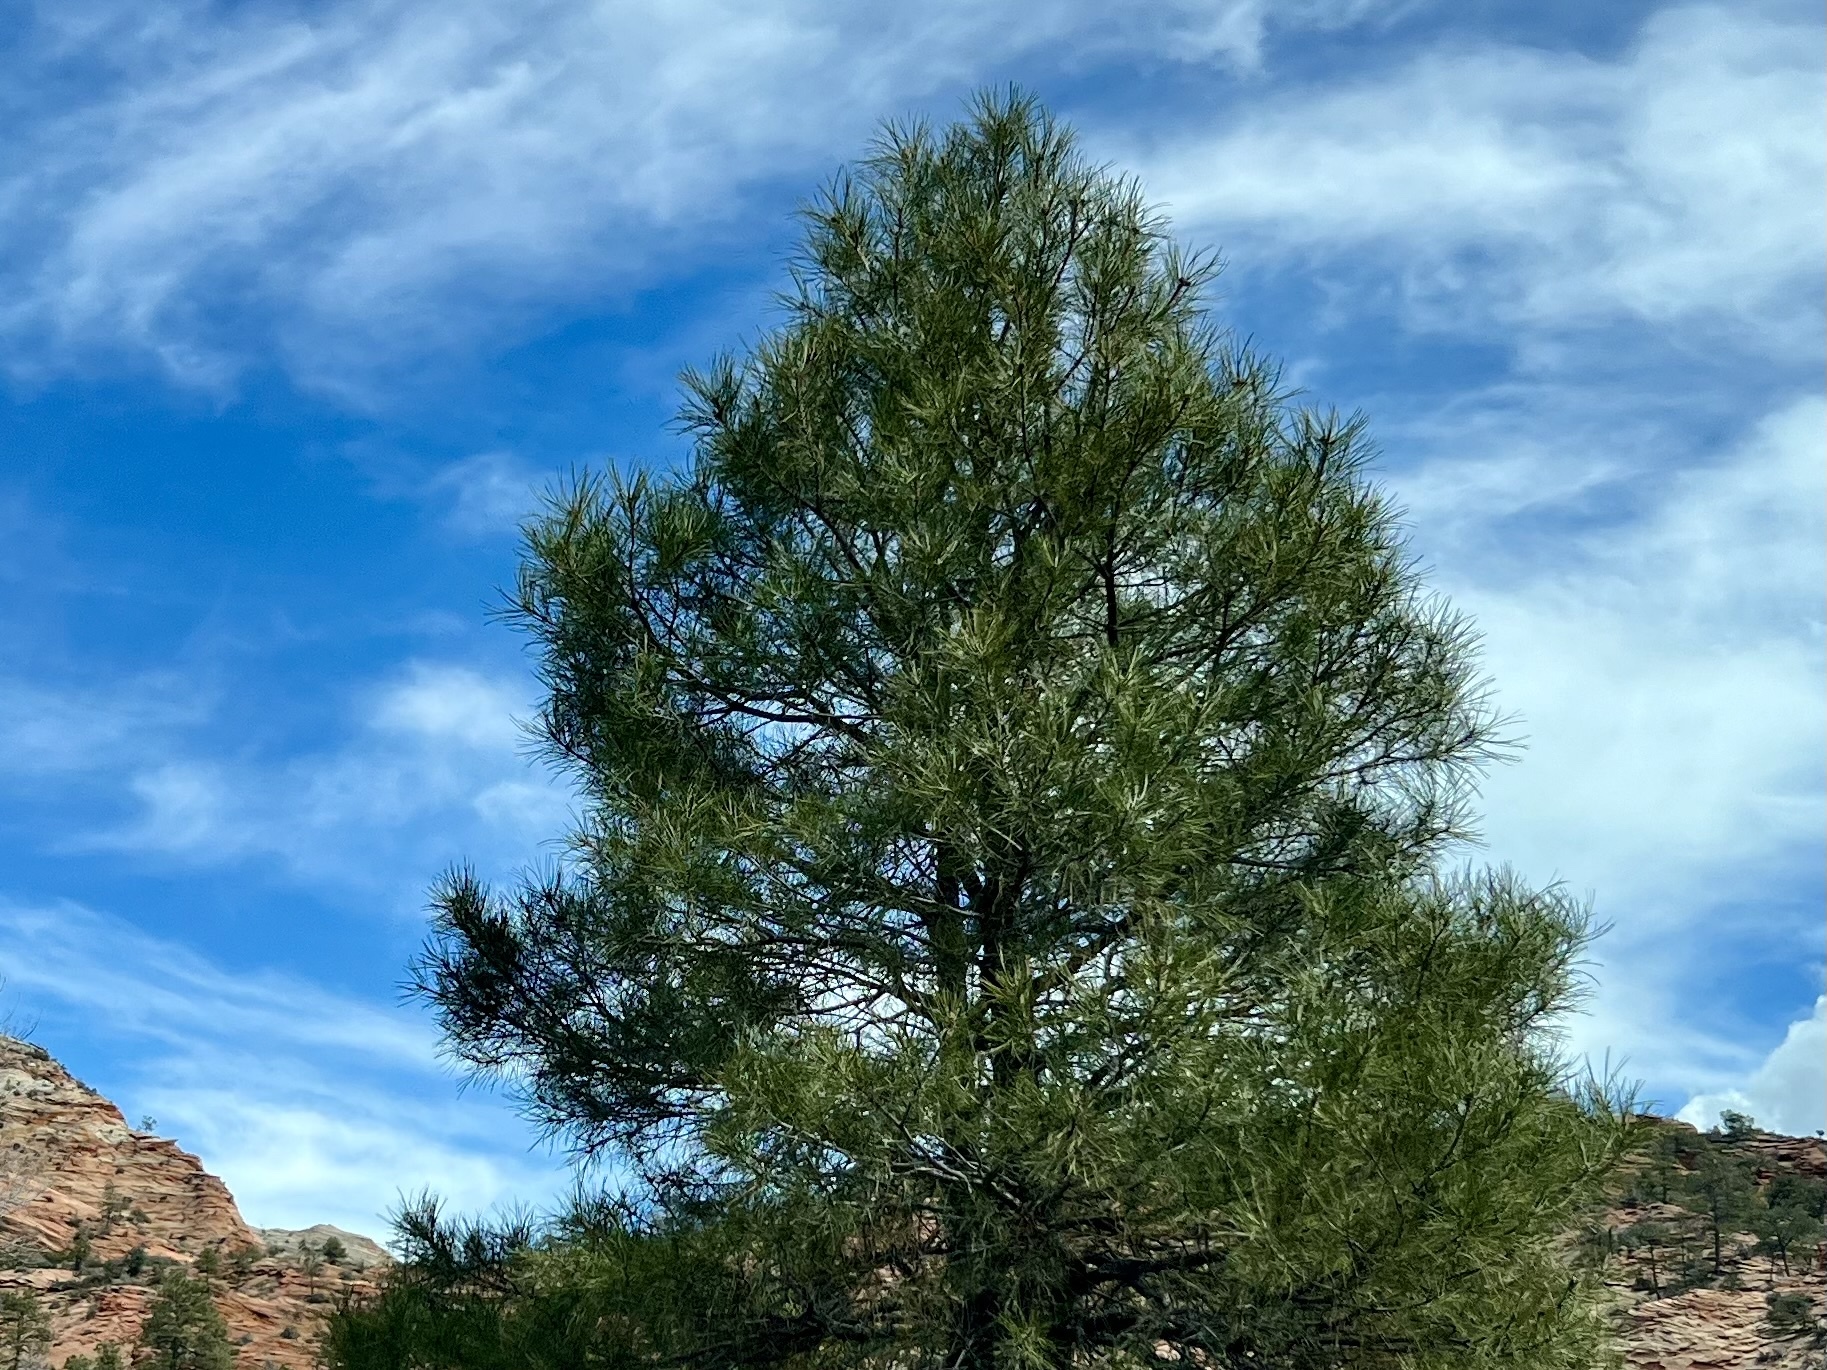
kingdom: Plantae
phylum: Tracheophyta
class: Pinopsida
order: Pinales
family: Pinaceae
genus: Pinus
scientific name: Pinus ponderosa
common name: Western yellow-pine
